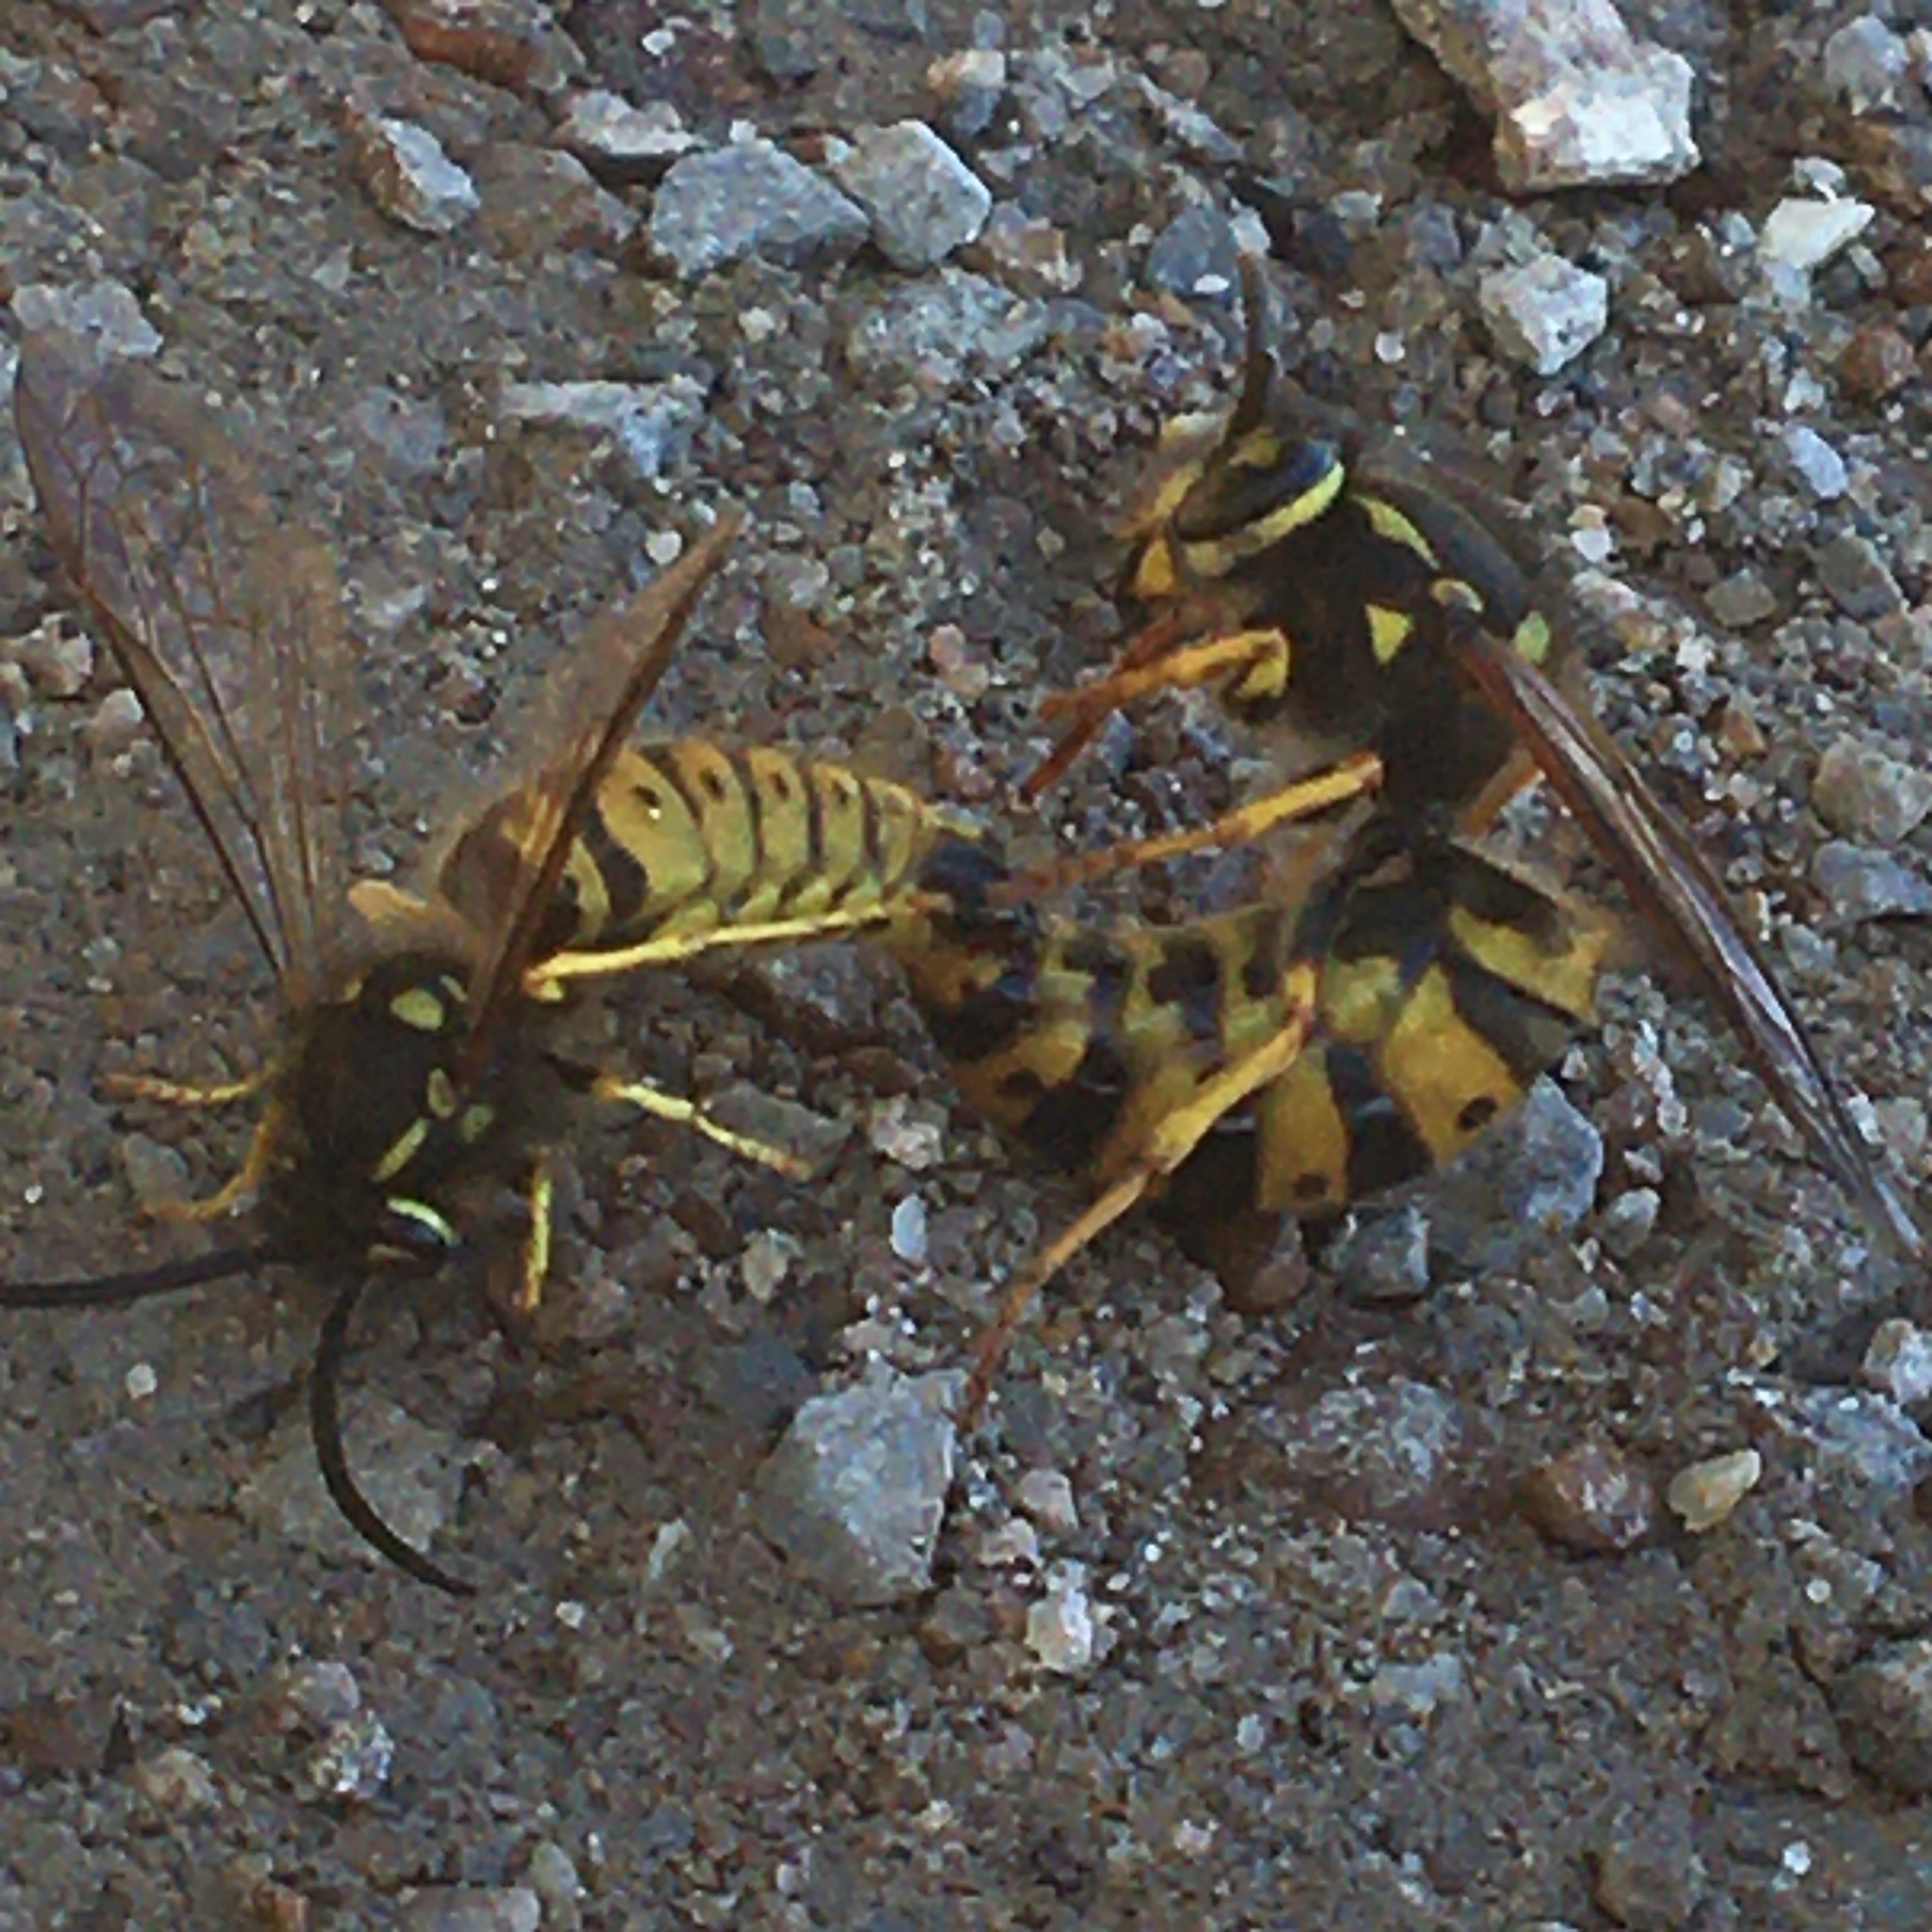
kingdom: Animalia
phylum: Arthropoda
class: Insecta
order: Hymenoptera
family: Vespidae
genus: Vespula
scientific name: Vespula germanica
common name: German wasp
